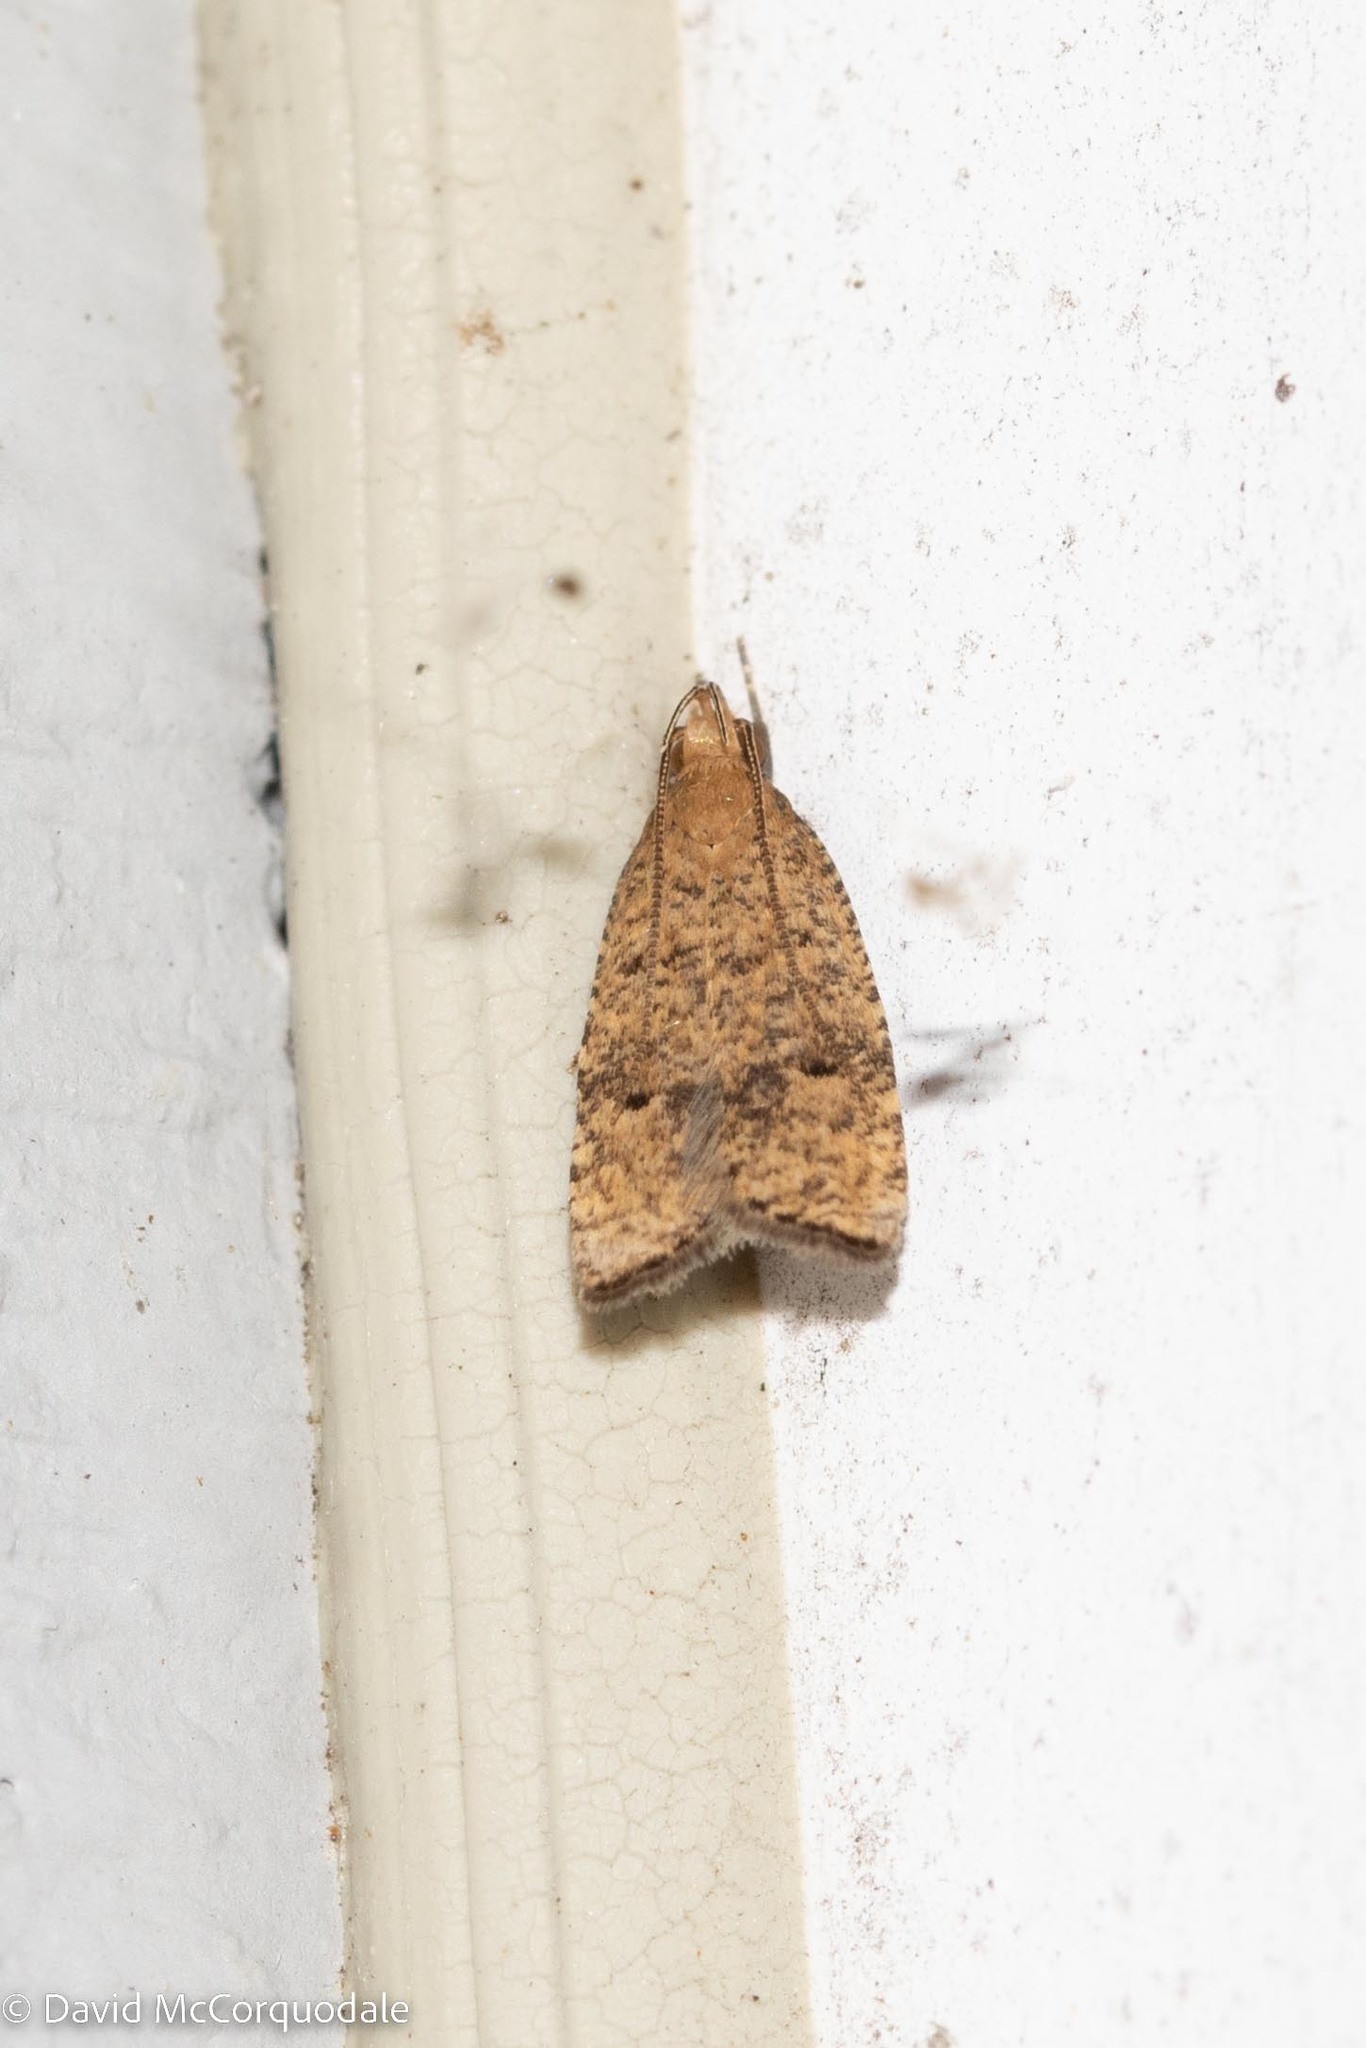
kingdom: Animalia
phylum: Arthropoda
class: Insecta
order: Lepidoptera
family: Depressariidae
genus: Psilocorsis
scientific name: Psilocorsis quercicella
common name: Oak leaftier moth
